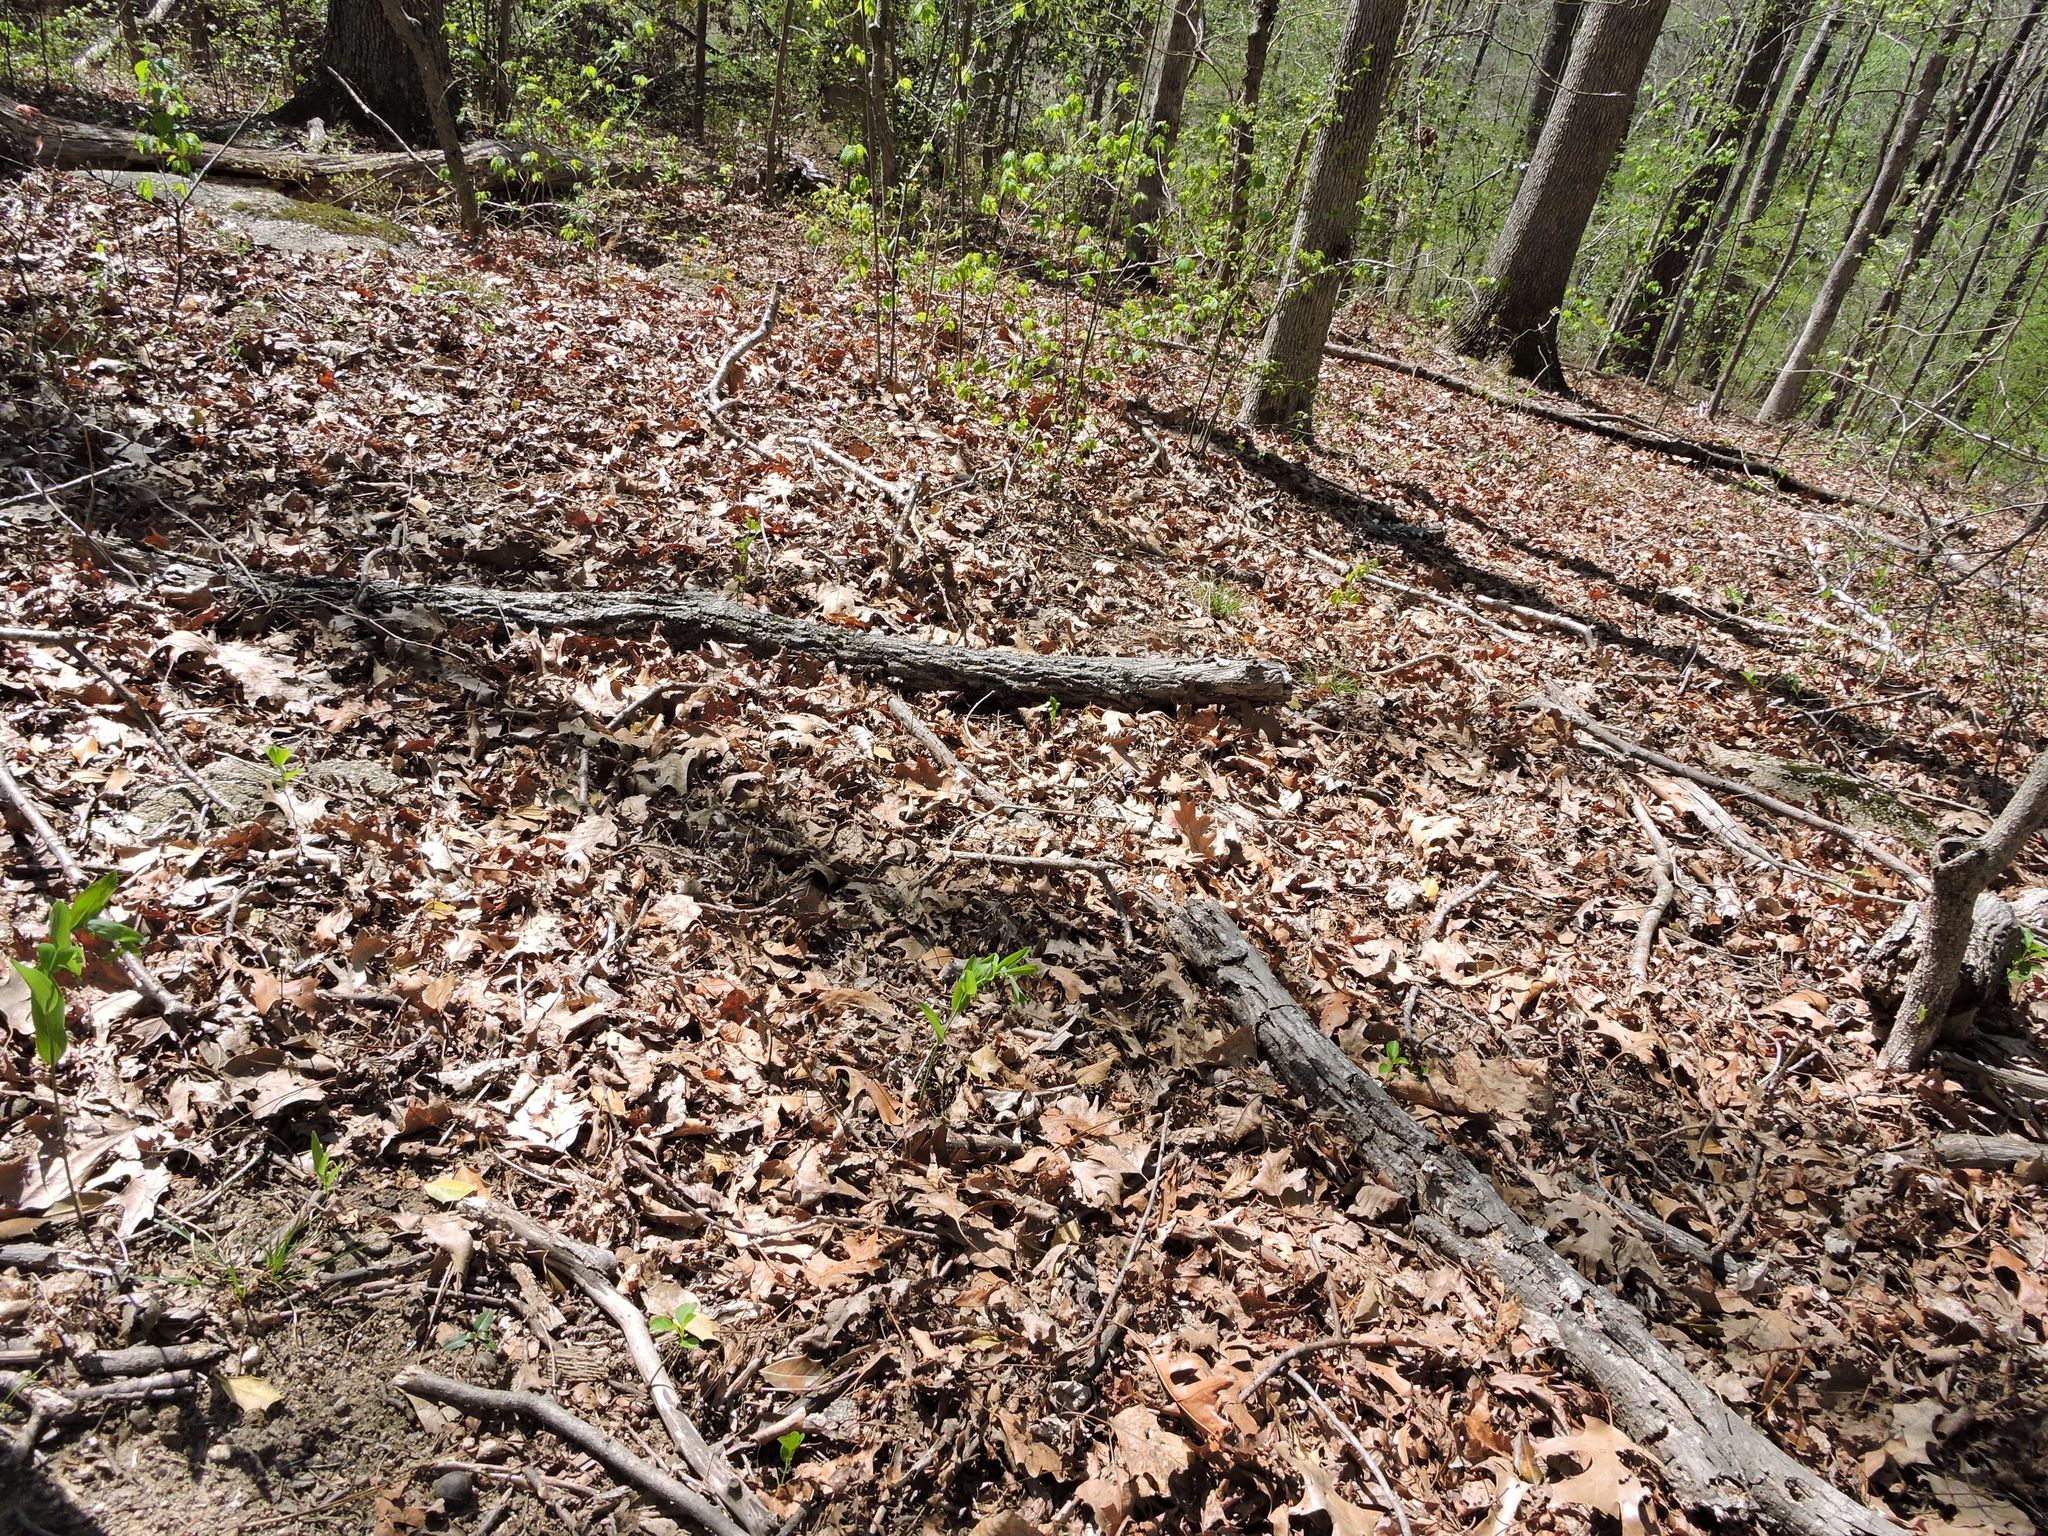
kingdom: Plantae
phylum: Tracheophyta
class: Liliopsida
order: Asparagales
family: Asparagaceae
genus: Polygonatum
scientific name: Polygonatum biflorum
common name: American solomon's-seal
